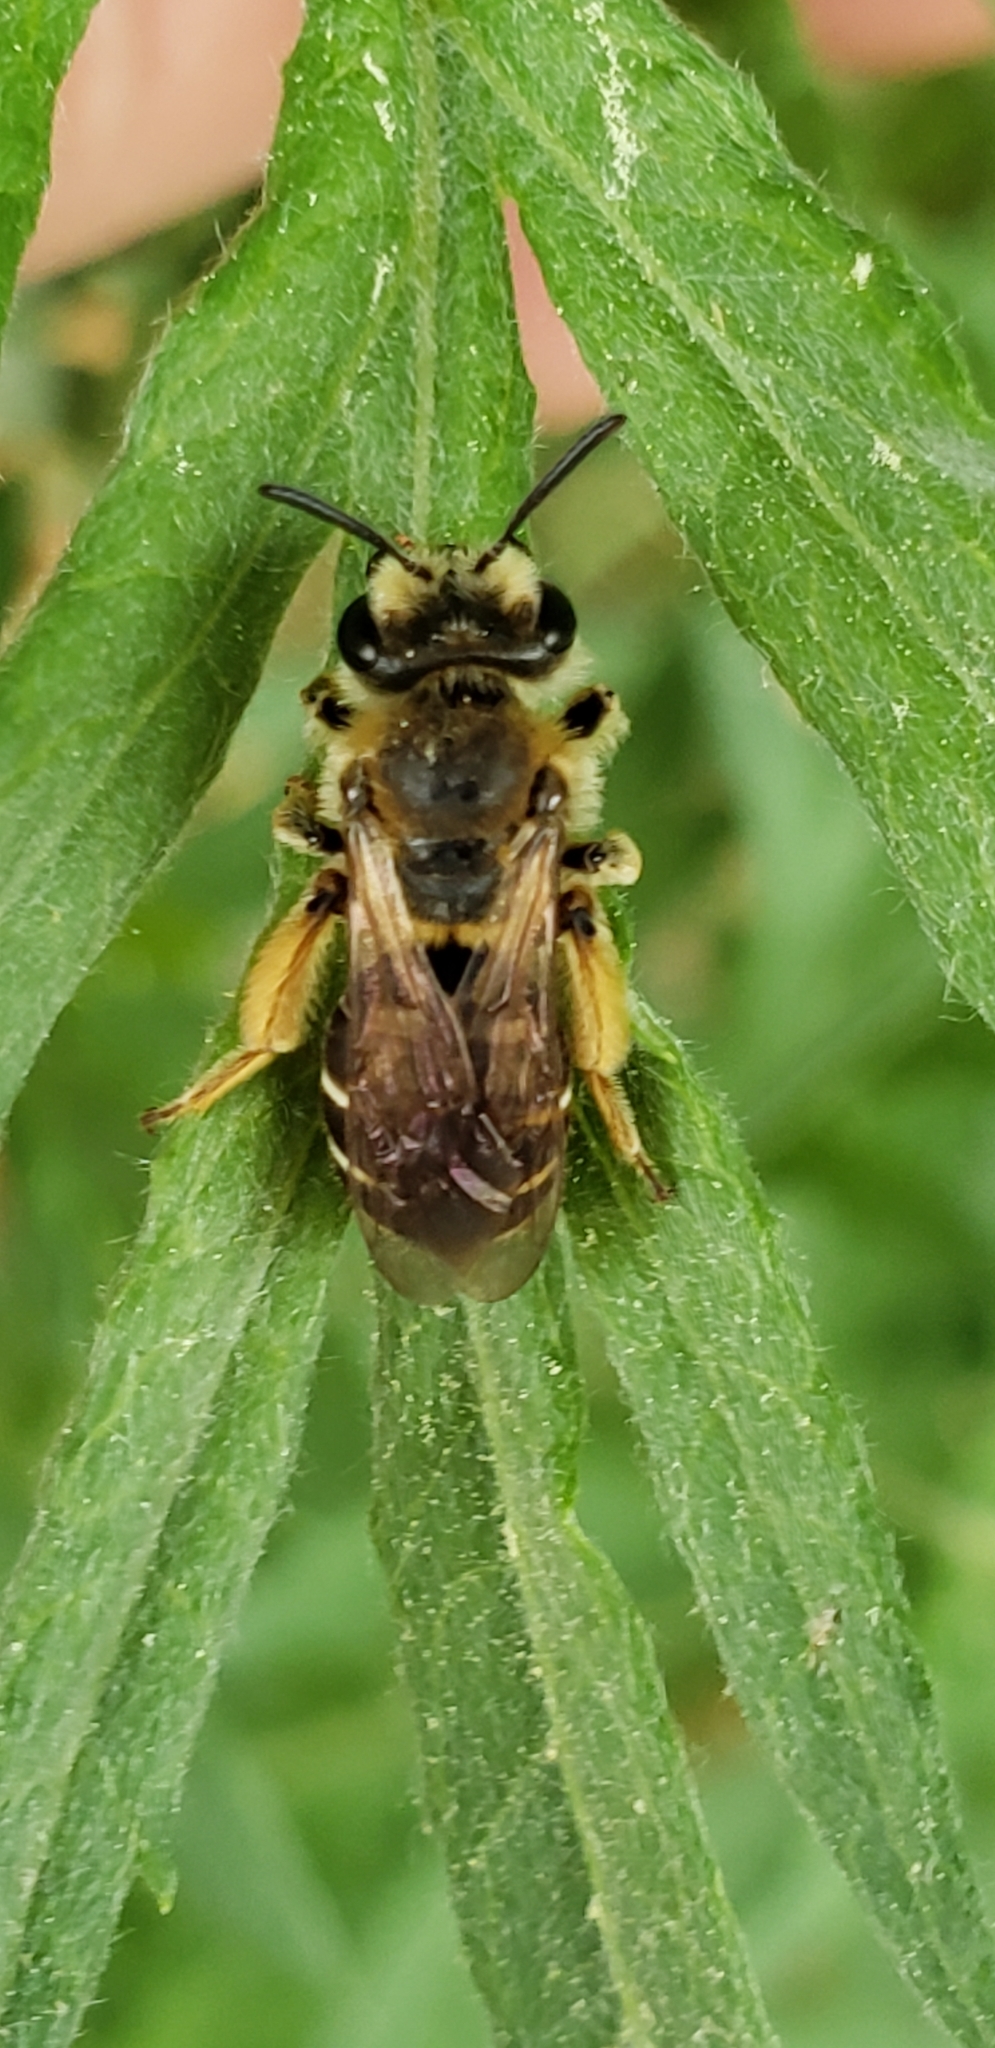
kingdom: Animalia
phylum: Arthropoda
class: Insecta
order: Hymenoptera
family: Andrenidae
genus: Andrena
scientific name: Andrena wilkella
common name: Wilke's mining bee
